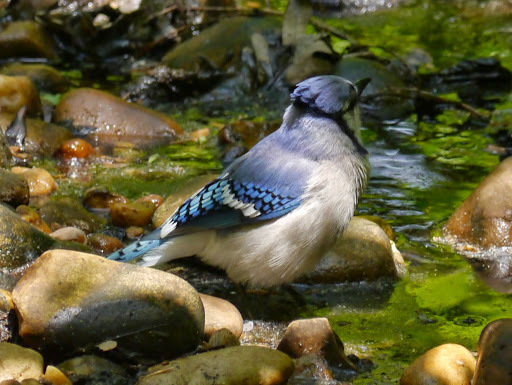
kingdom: Animalia
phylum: Chordata
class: Aves
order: Passeriformes
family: Corvidae
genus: Cyanocitta
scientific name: Cyanocitta cristata
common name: Blue jay
